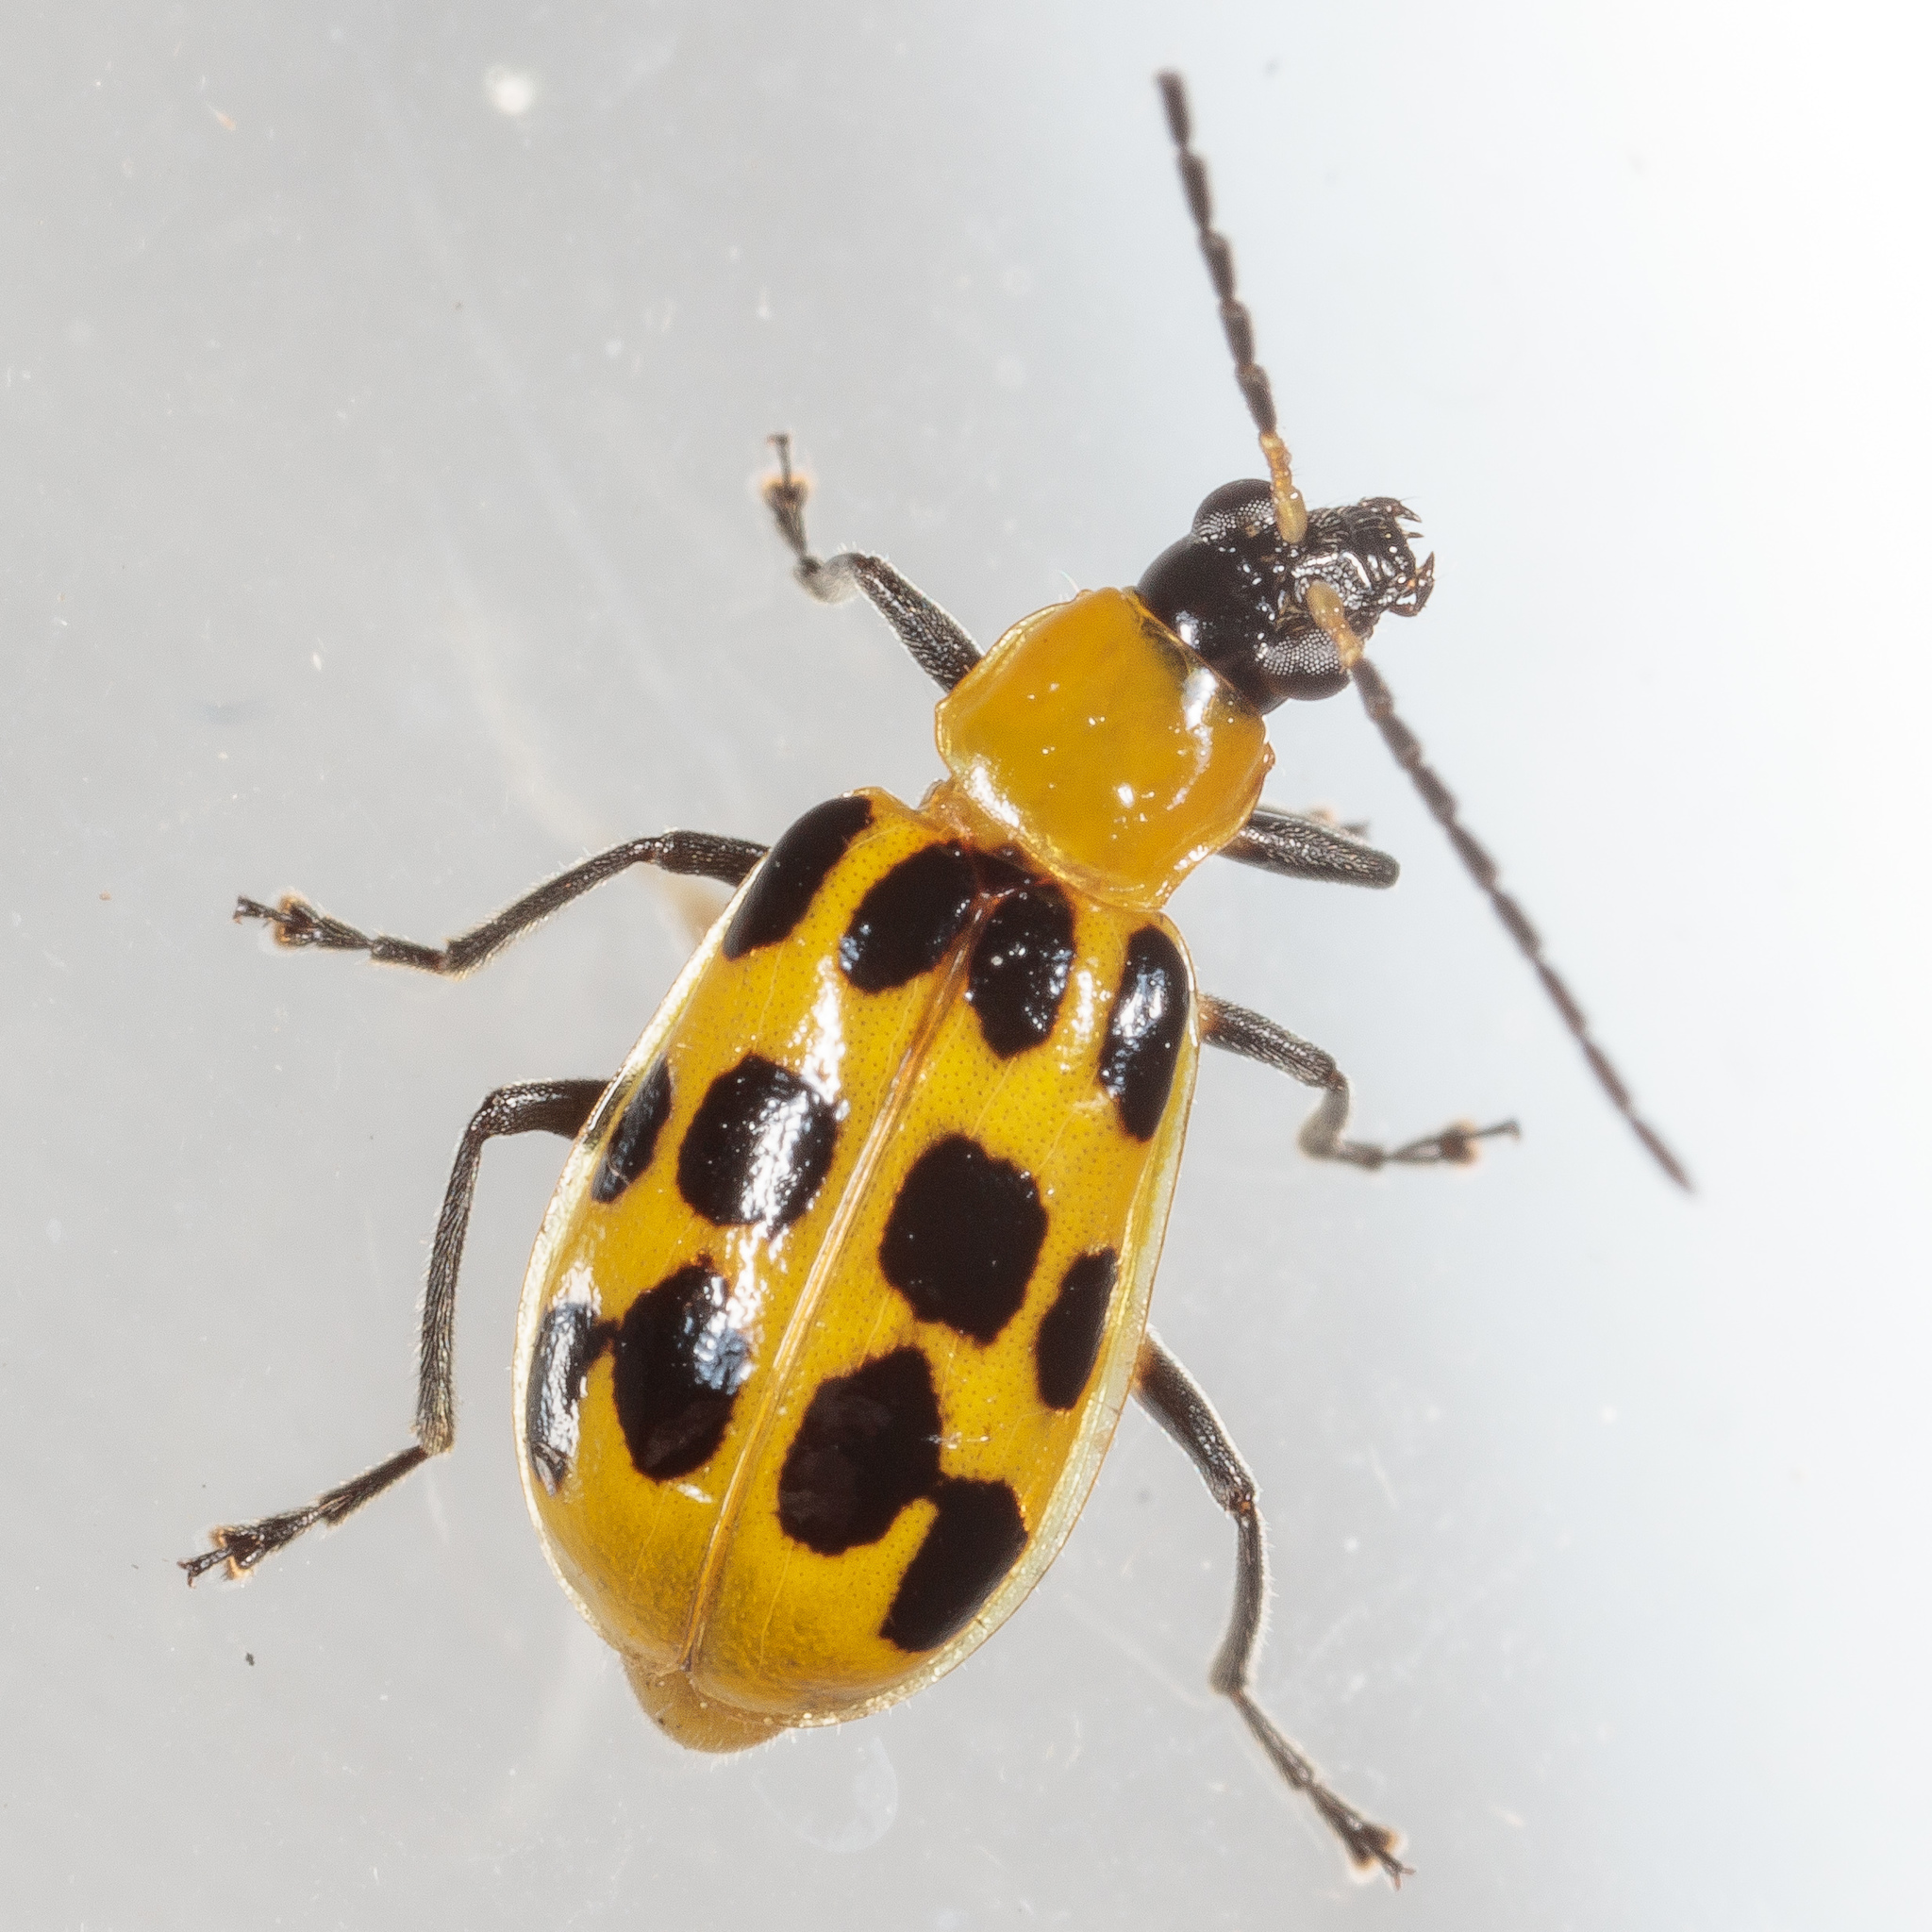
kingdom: Animalia
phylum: Arthropoda
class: Insecta
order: Coleoptera
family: Chrysomelidae
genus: Diabrotica
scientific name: Diabrotica undecimpunctata
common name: Spotted cucumber beetle
